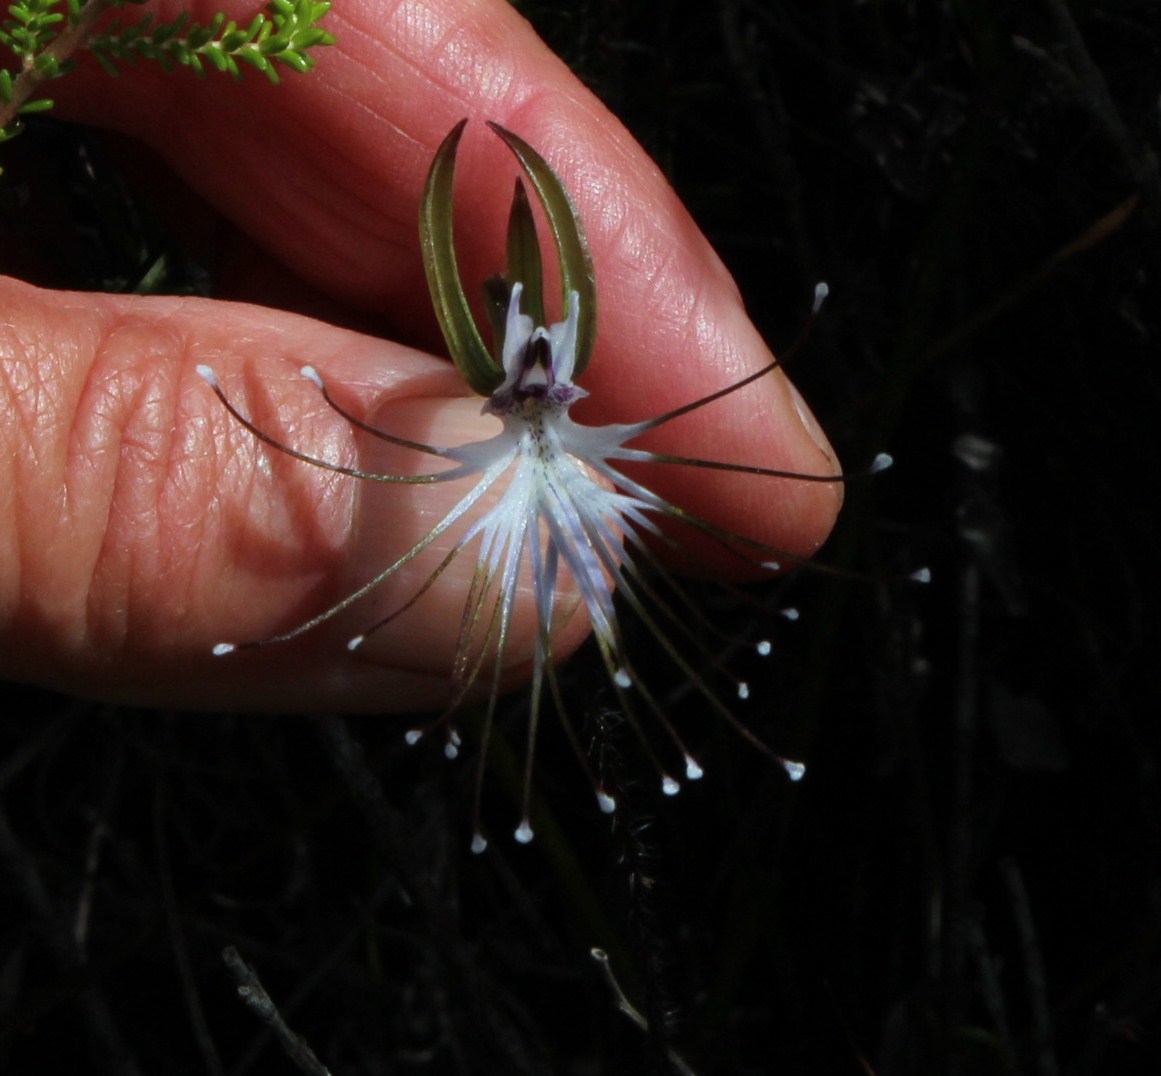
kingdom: Plantae
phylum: Tracheophyta
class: Liliopsida
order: Asparagales
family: Orchidaceae
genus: Holothrix
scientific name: Holothrix etheliae
